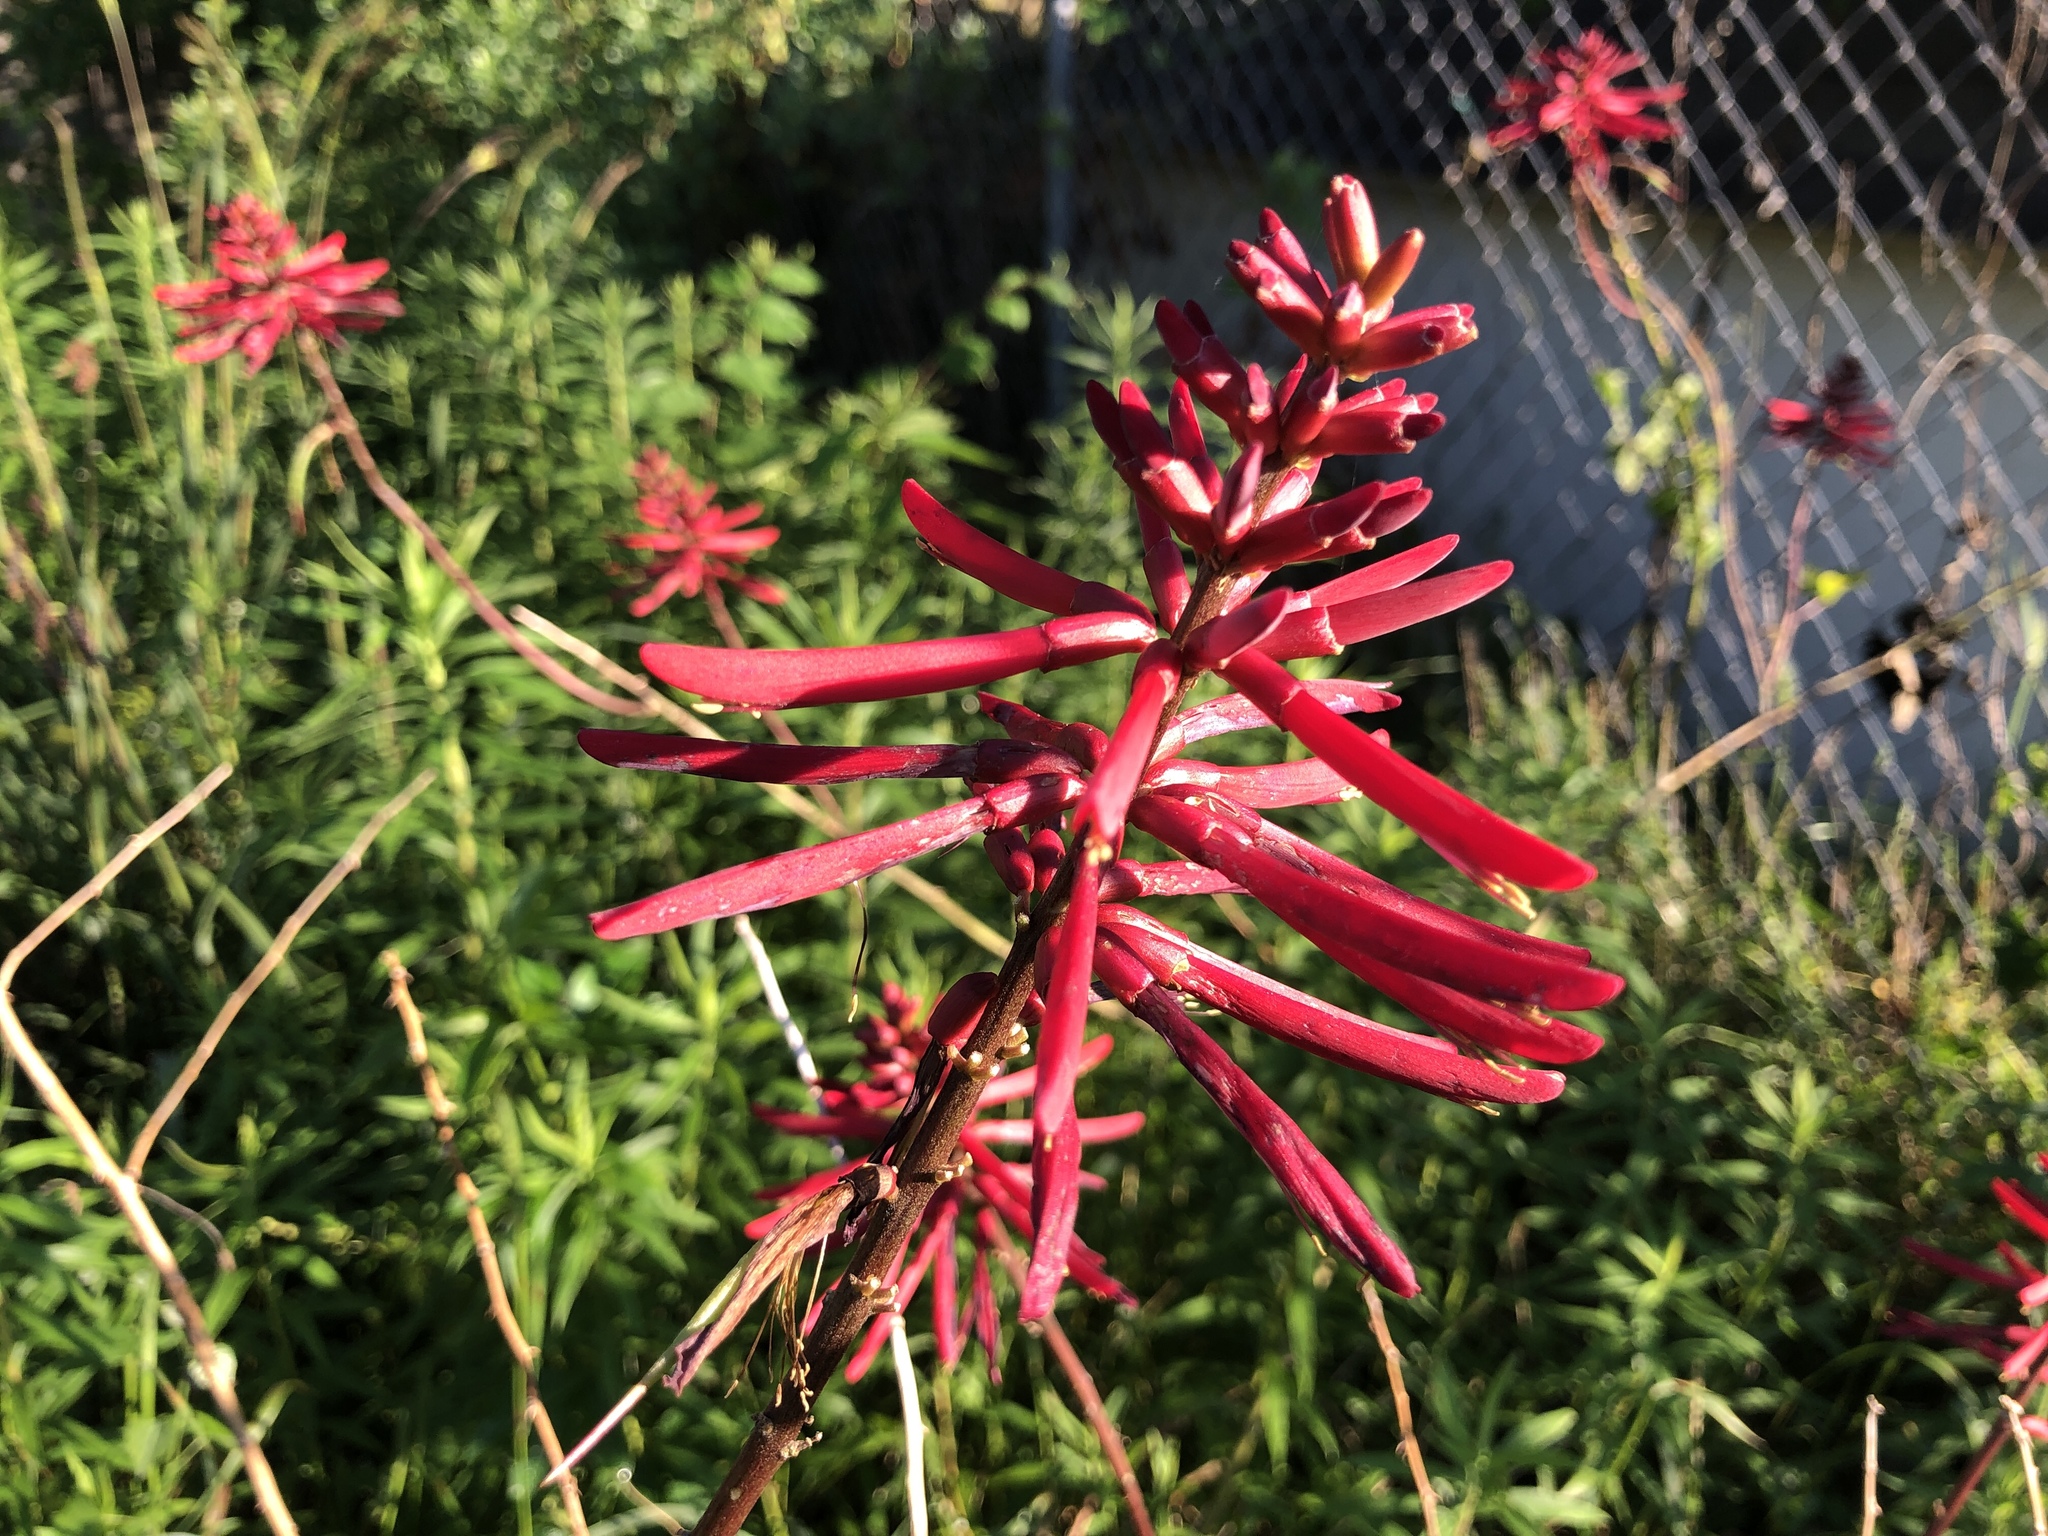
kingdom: Plantae
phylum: Tracheophyta
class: Magnoliopsida
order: Fabales
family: Fabaceae
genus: Erythrina
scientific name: Erythrina herbacea
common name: Coral-bean
